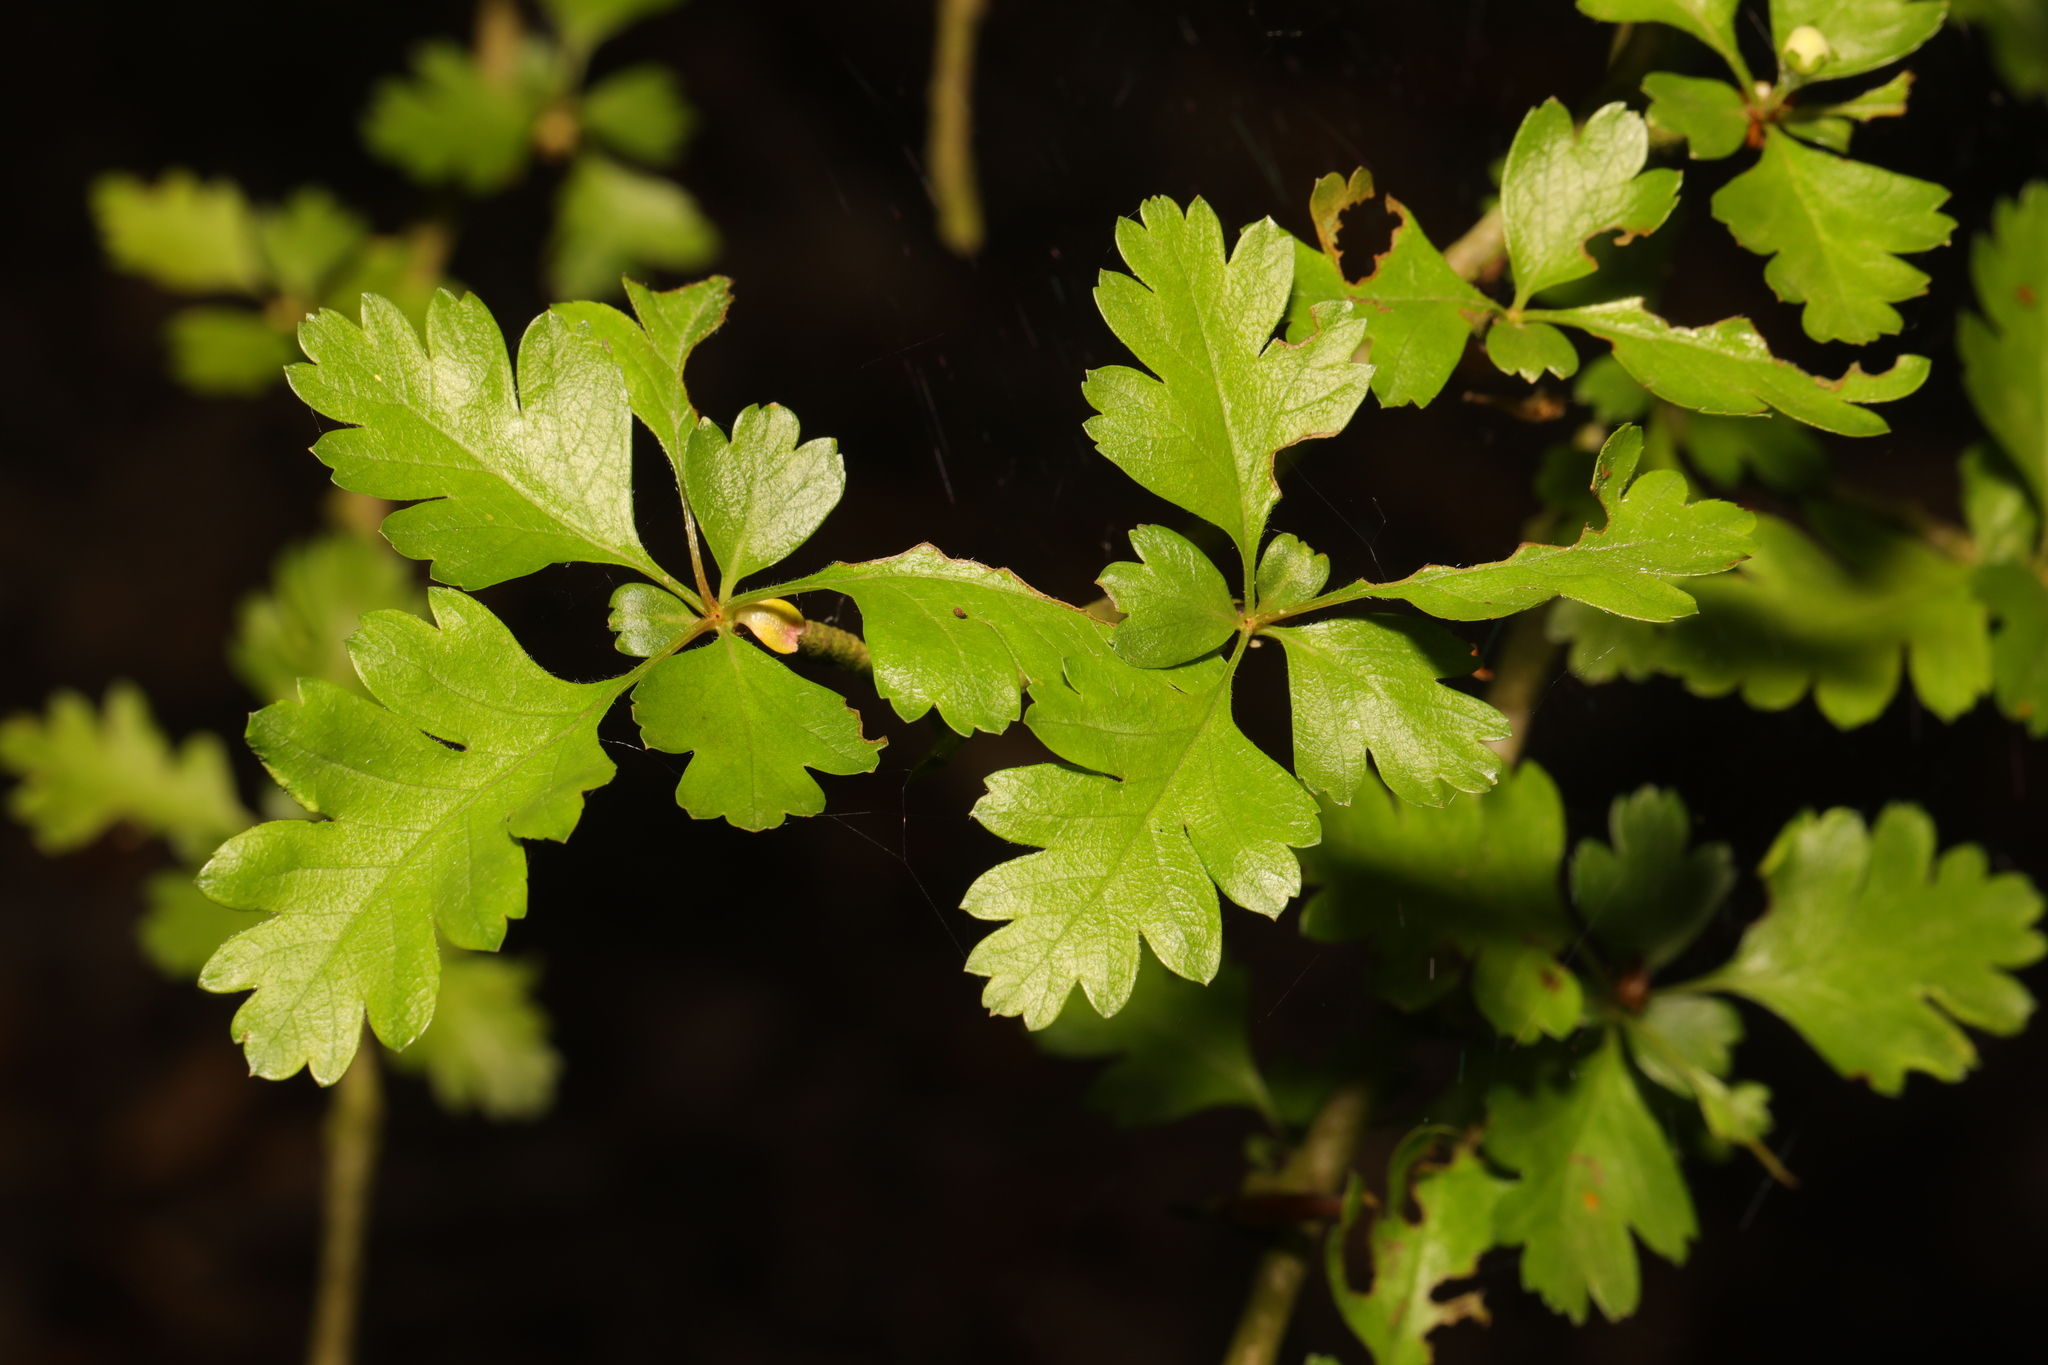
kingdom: Plantae
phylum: Tracheophyta
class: Magnoliopsida
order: Rosales
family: Rosaceae
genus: Crataegus
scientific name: Crataegus monogyna
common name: Hawthorn
